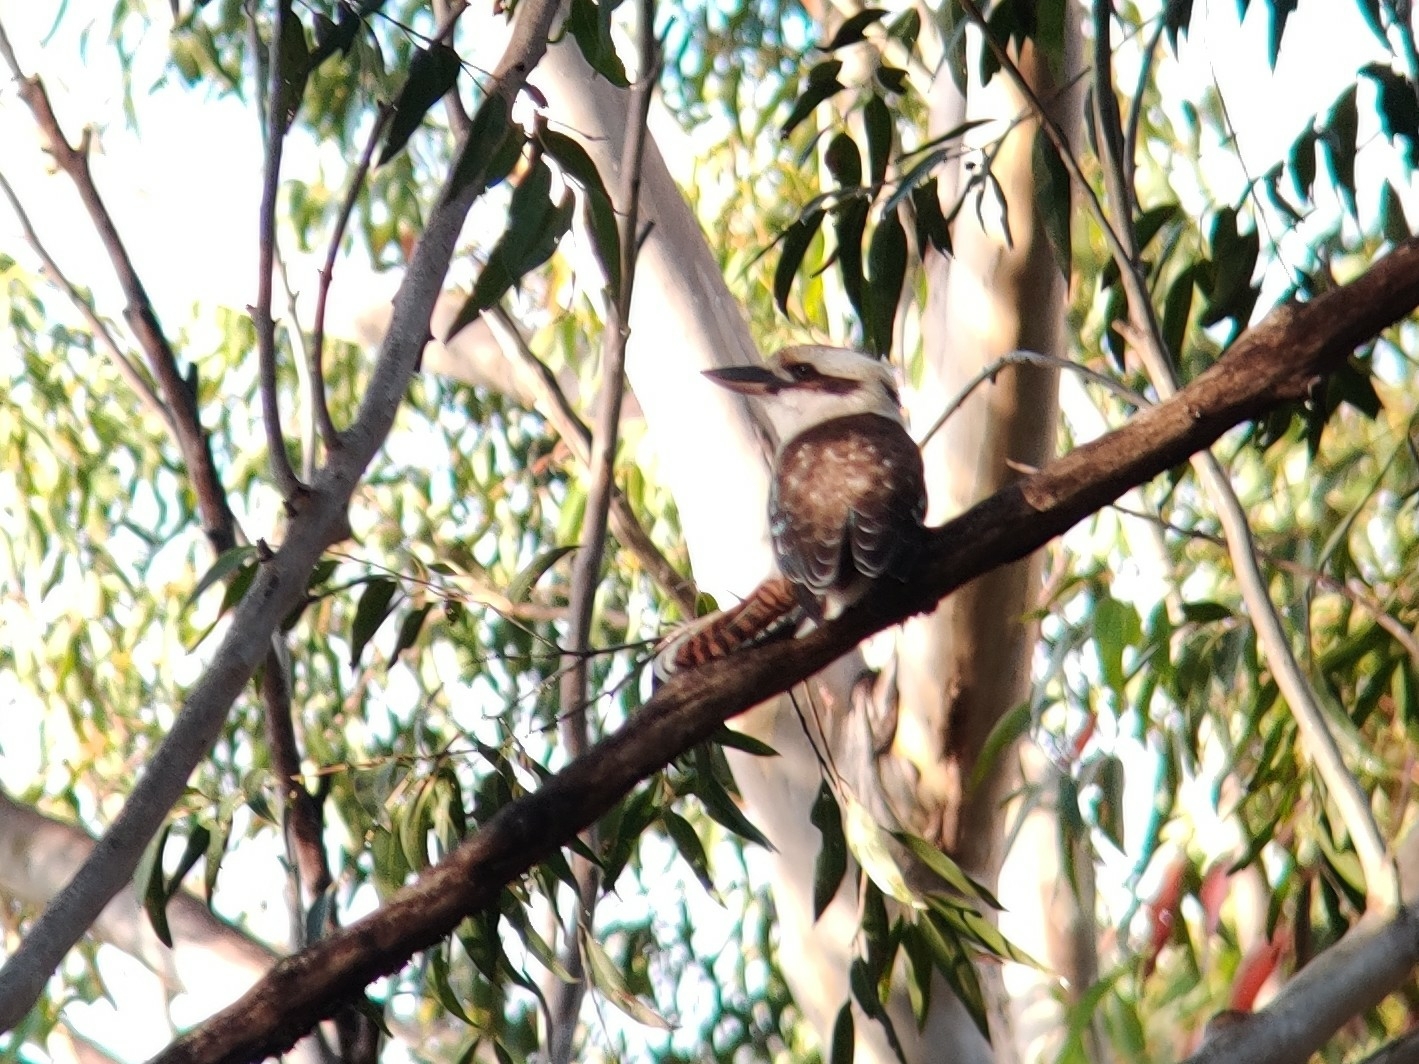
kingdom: Animalia
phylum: Chordata
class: Aves
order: Coraciiformes
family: Alcedinidae
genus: Dacelo
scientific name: Dacelo novaeguineae
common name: Laughing kookaburra
